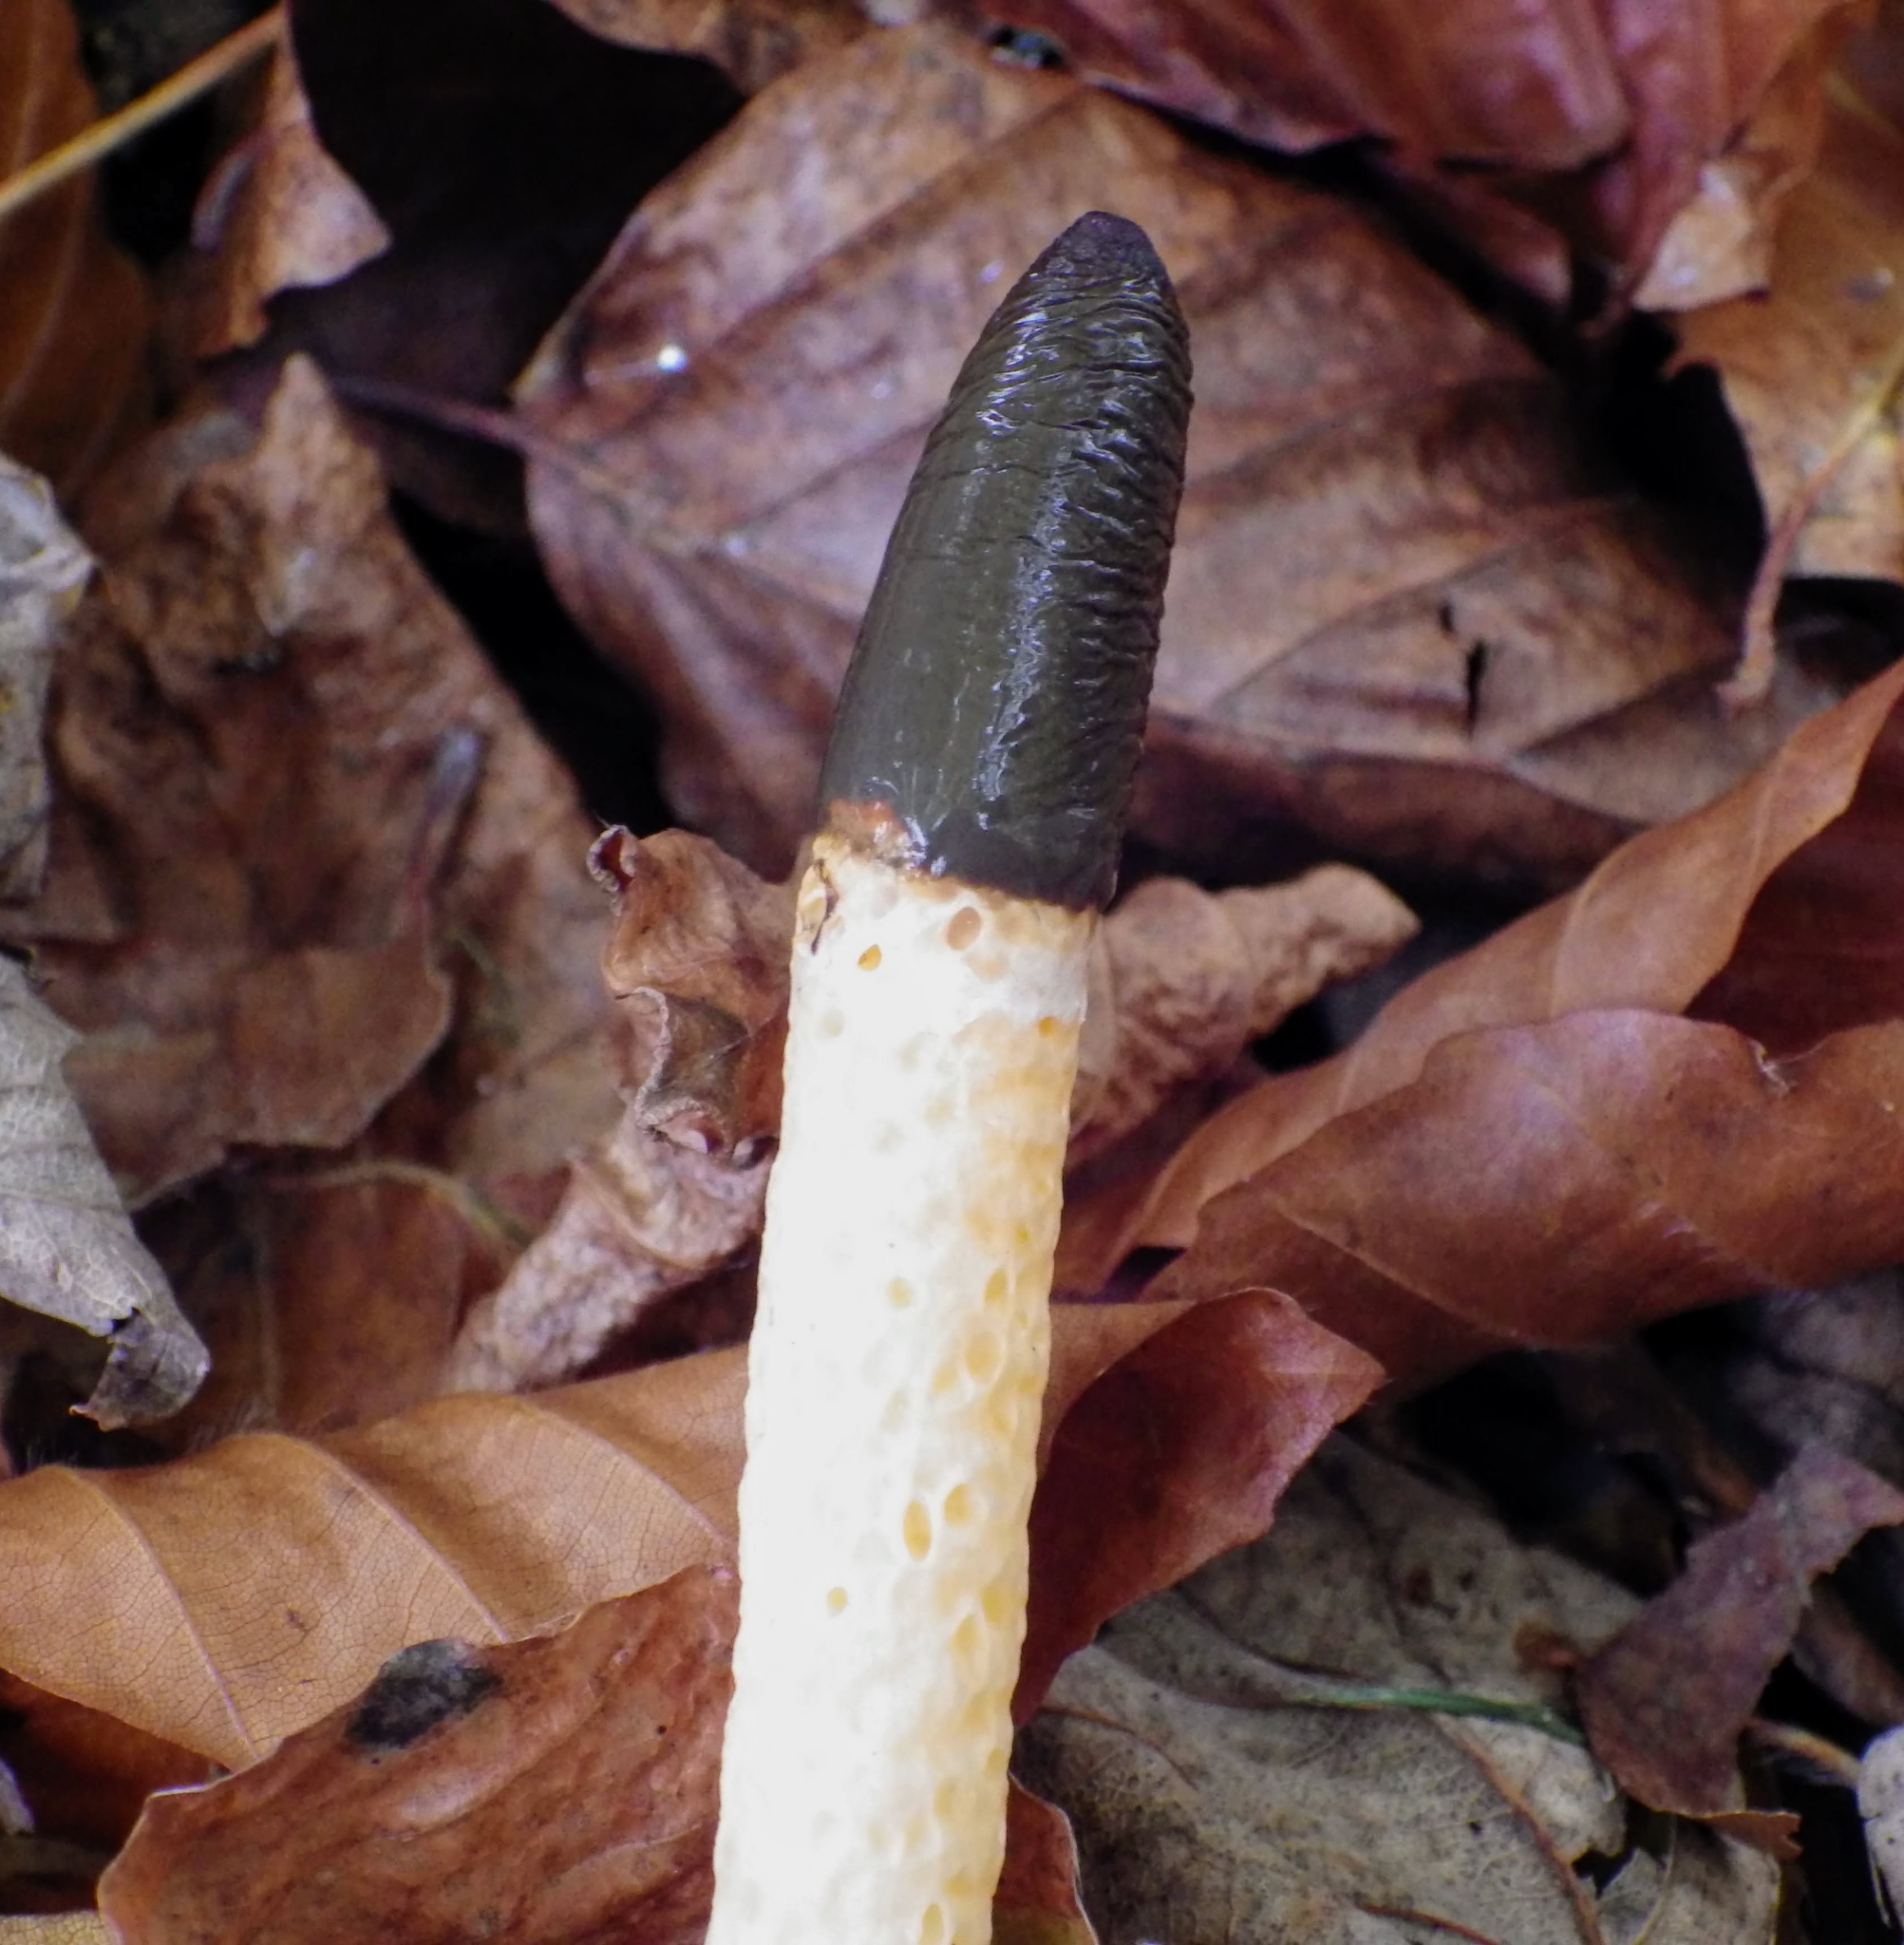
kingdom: Fungi
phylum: Basidiomycota
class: Agaricomycetes
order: Phallales
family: Phallaceae
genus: Mutinus
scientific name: Mutinus caninus
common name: Dog stinkhorn
